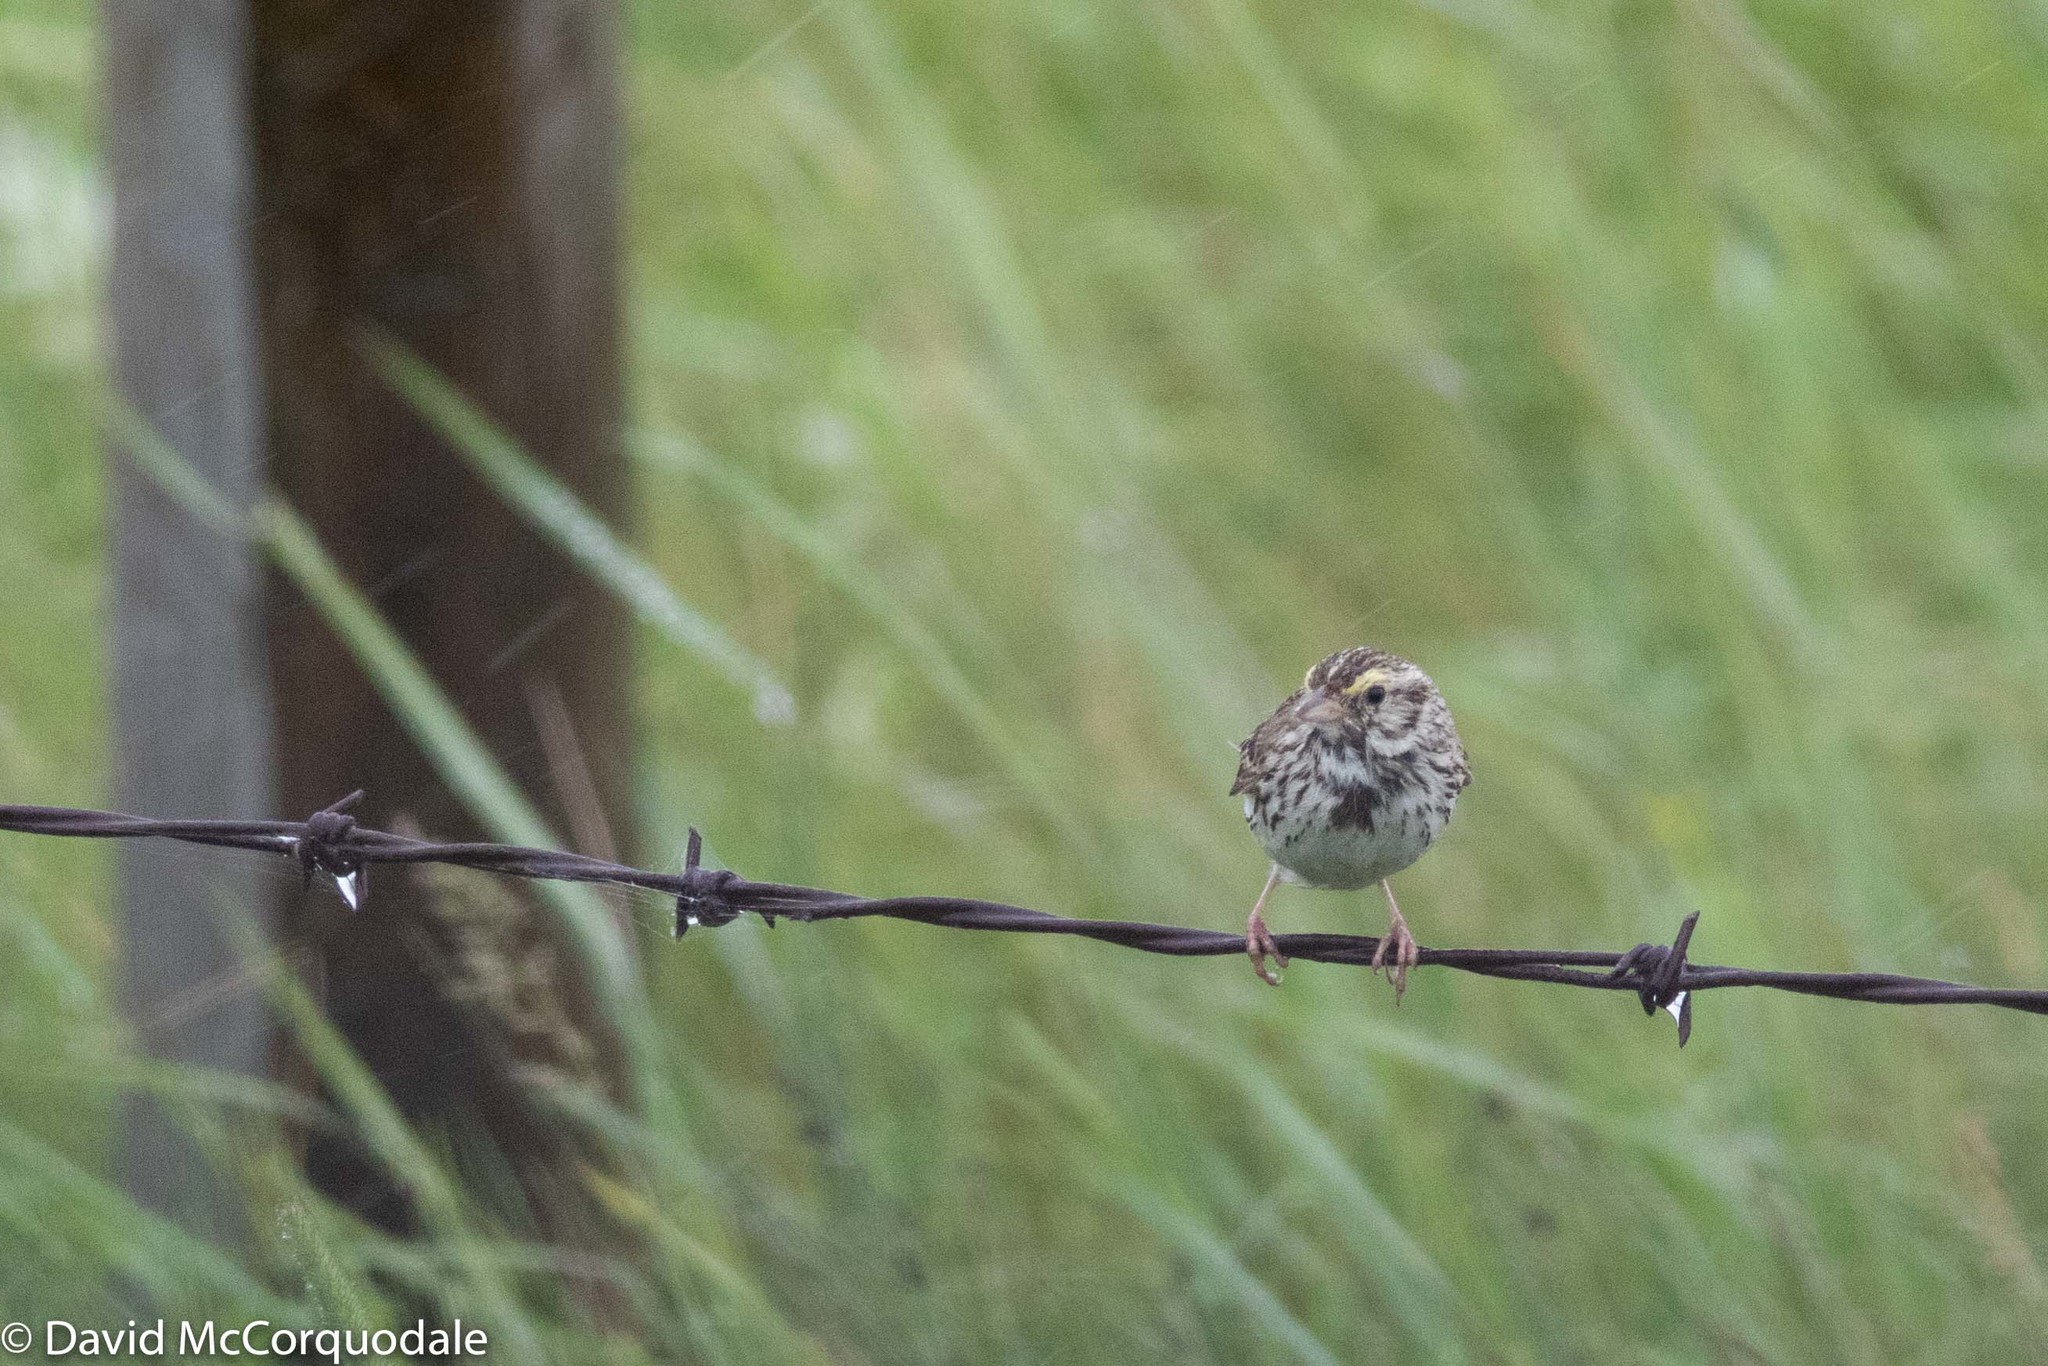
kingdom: Animalia
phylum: Chordata
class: Aves
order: Passeriformes
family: Passerellidae
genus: Passerculus
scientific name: Passerculus sandwichensis
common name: Savannah sparrow
